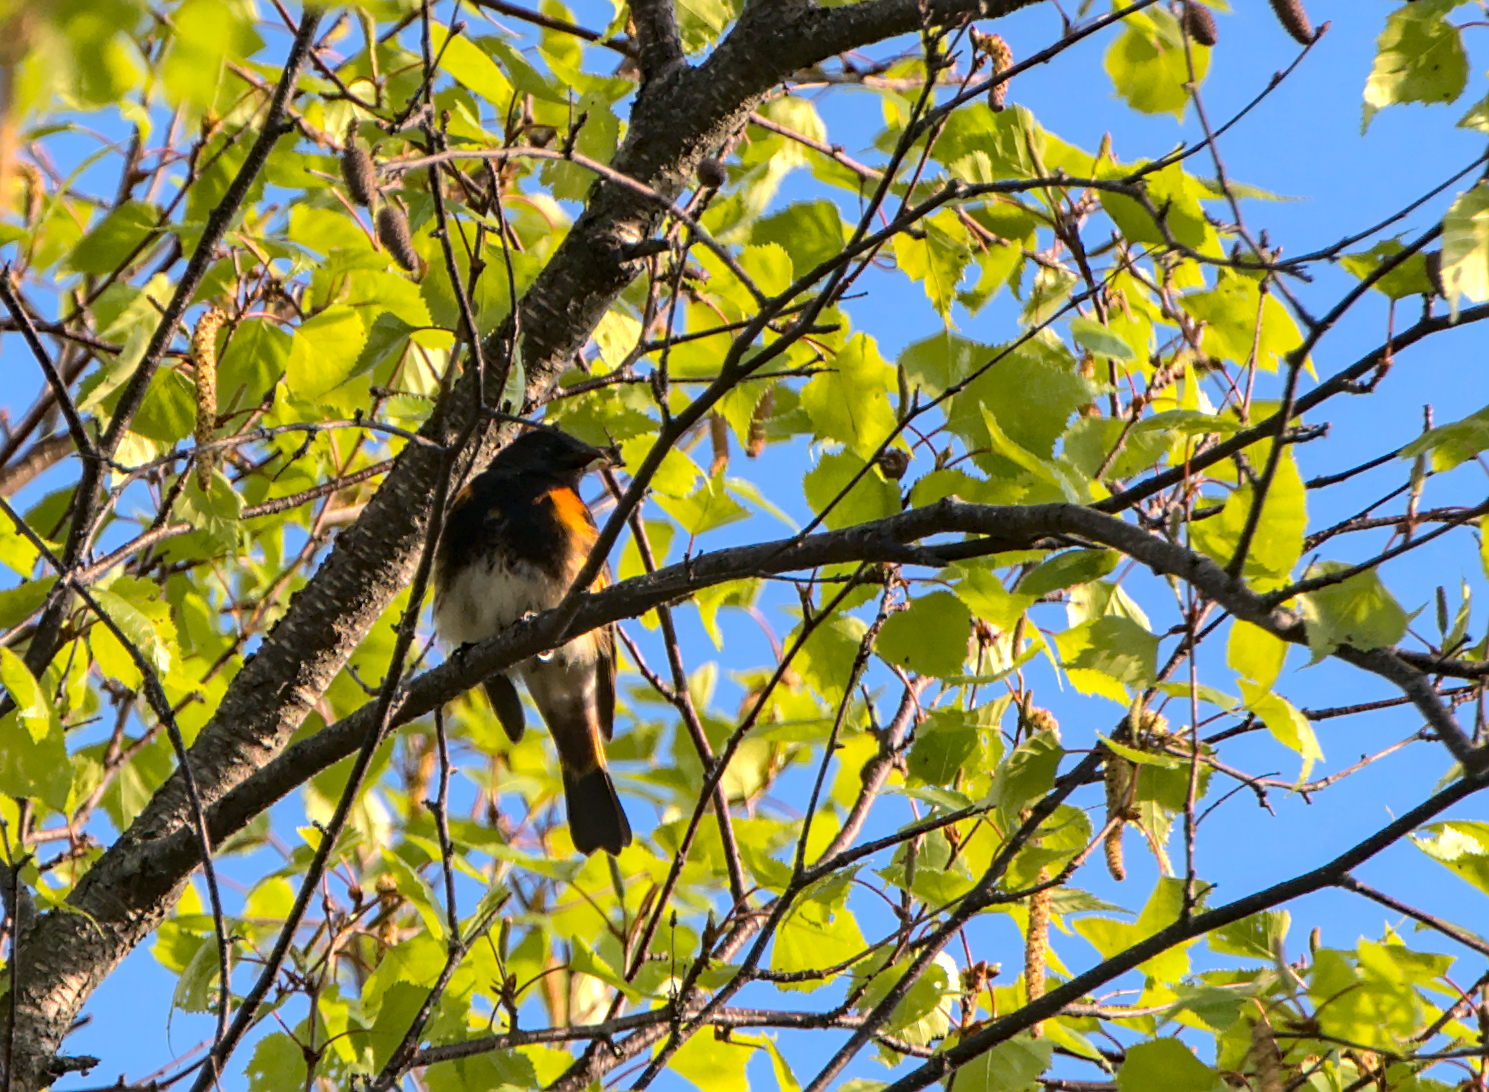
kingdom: Animalia
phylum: Chordata
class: Aves
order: Passeriformes
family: Parulidae
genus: Setophaga
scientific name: Setophaga ruticilla
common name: American redstart
